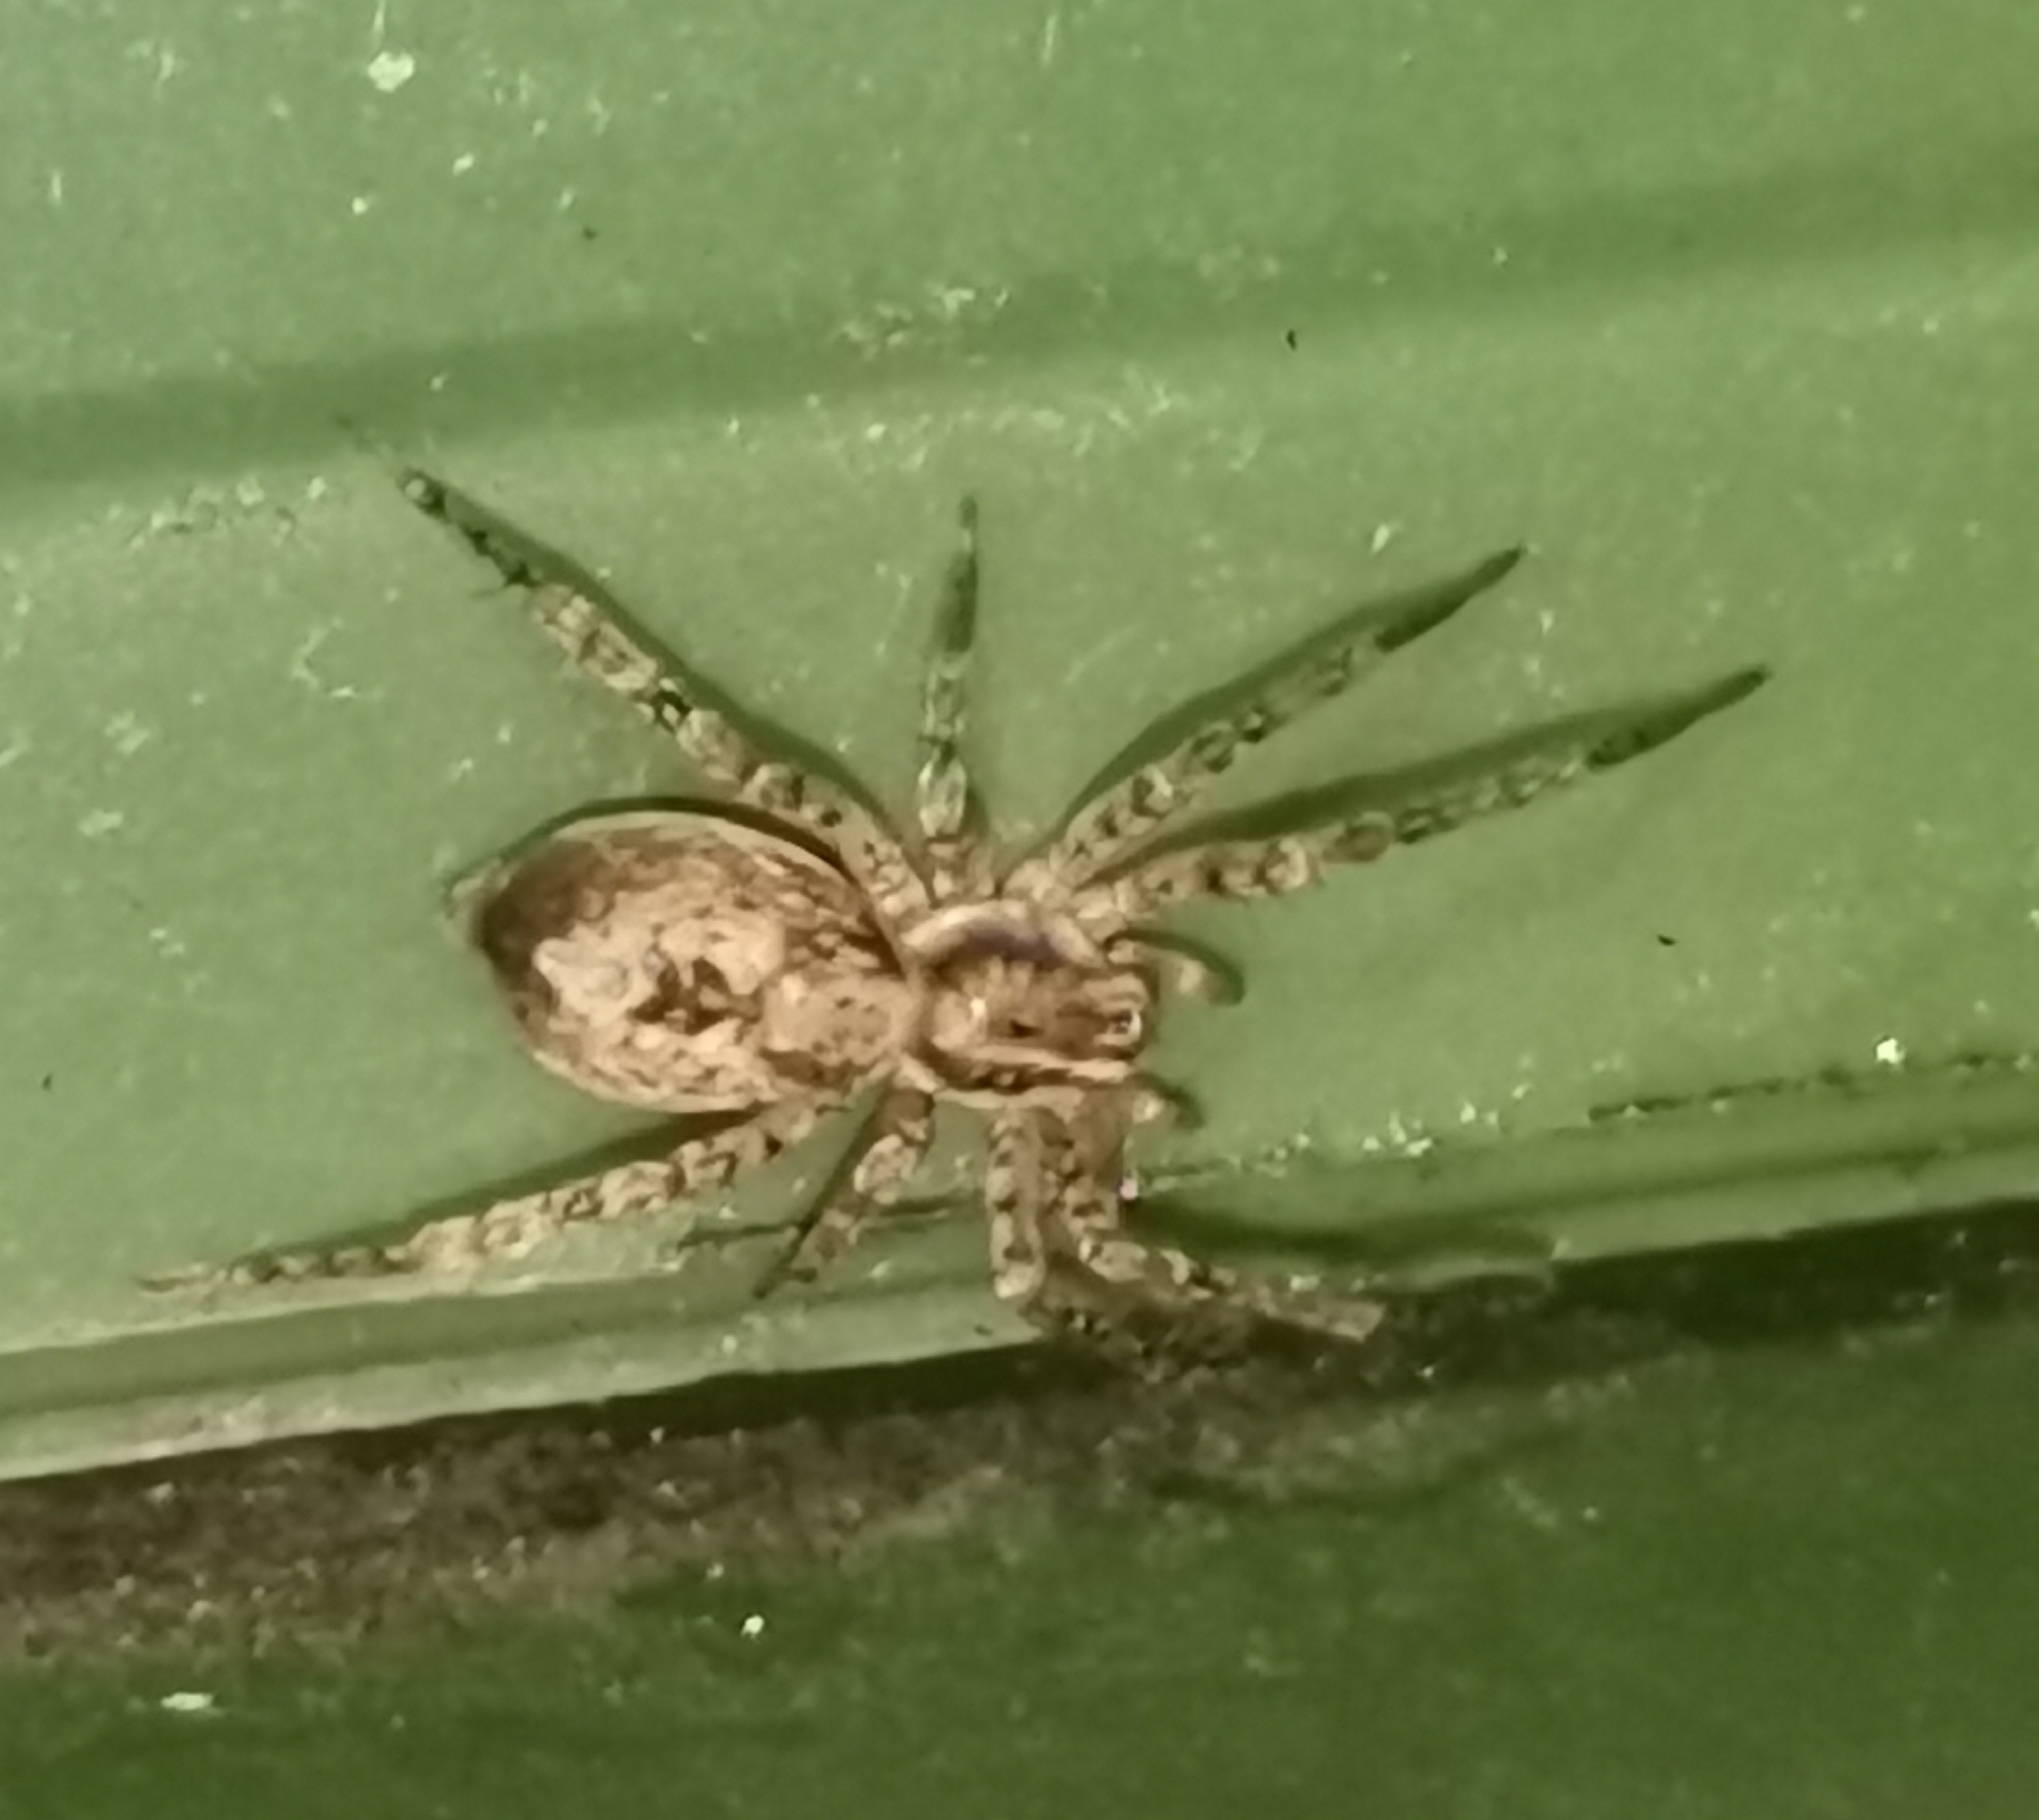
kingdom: Animalia
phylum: Arthropoda
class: Arachnida
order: Araneae
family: Anyphaenidae
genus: Anyphaena
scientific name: Anyphaena accentuata
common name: Buzzing spider
